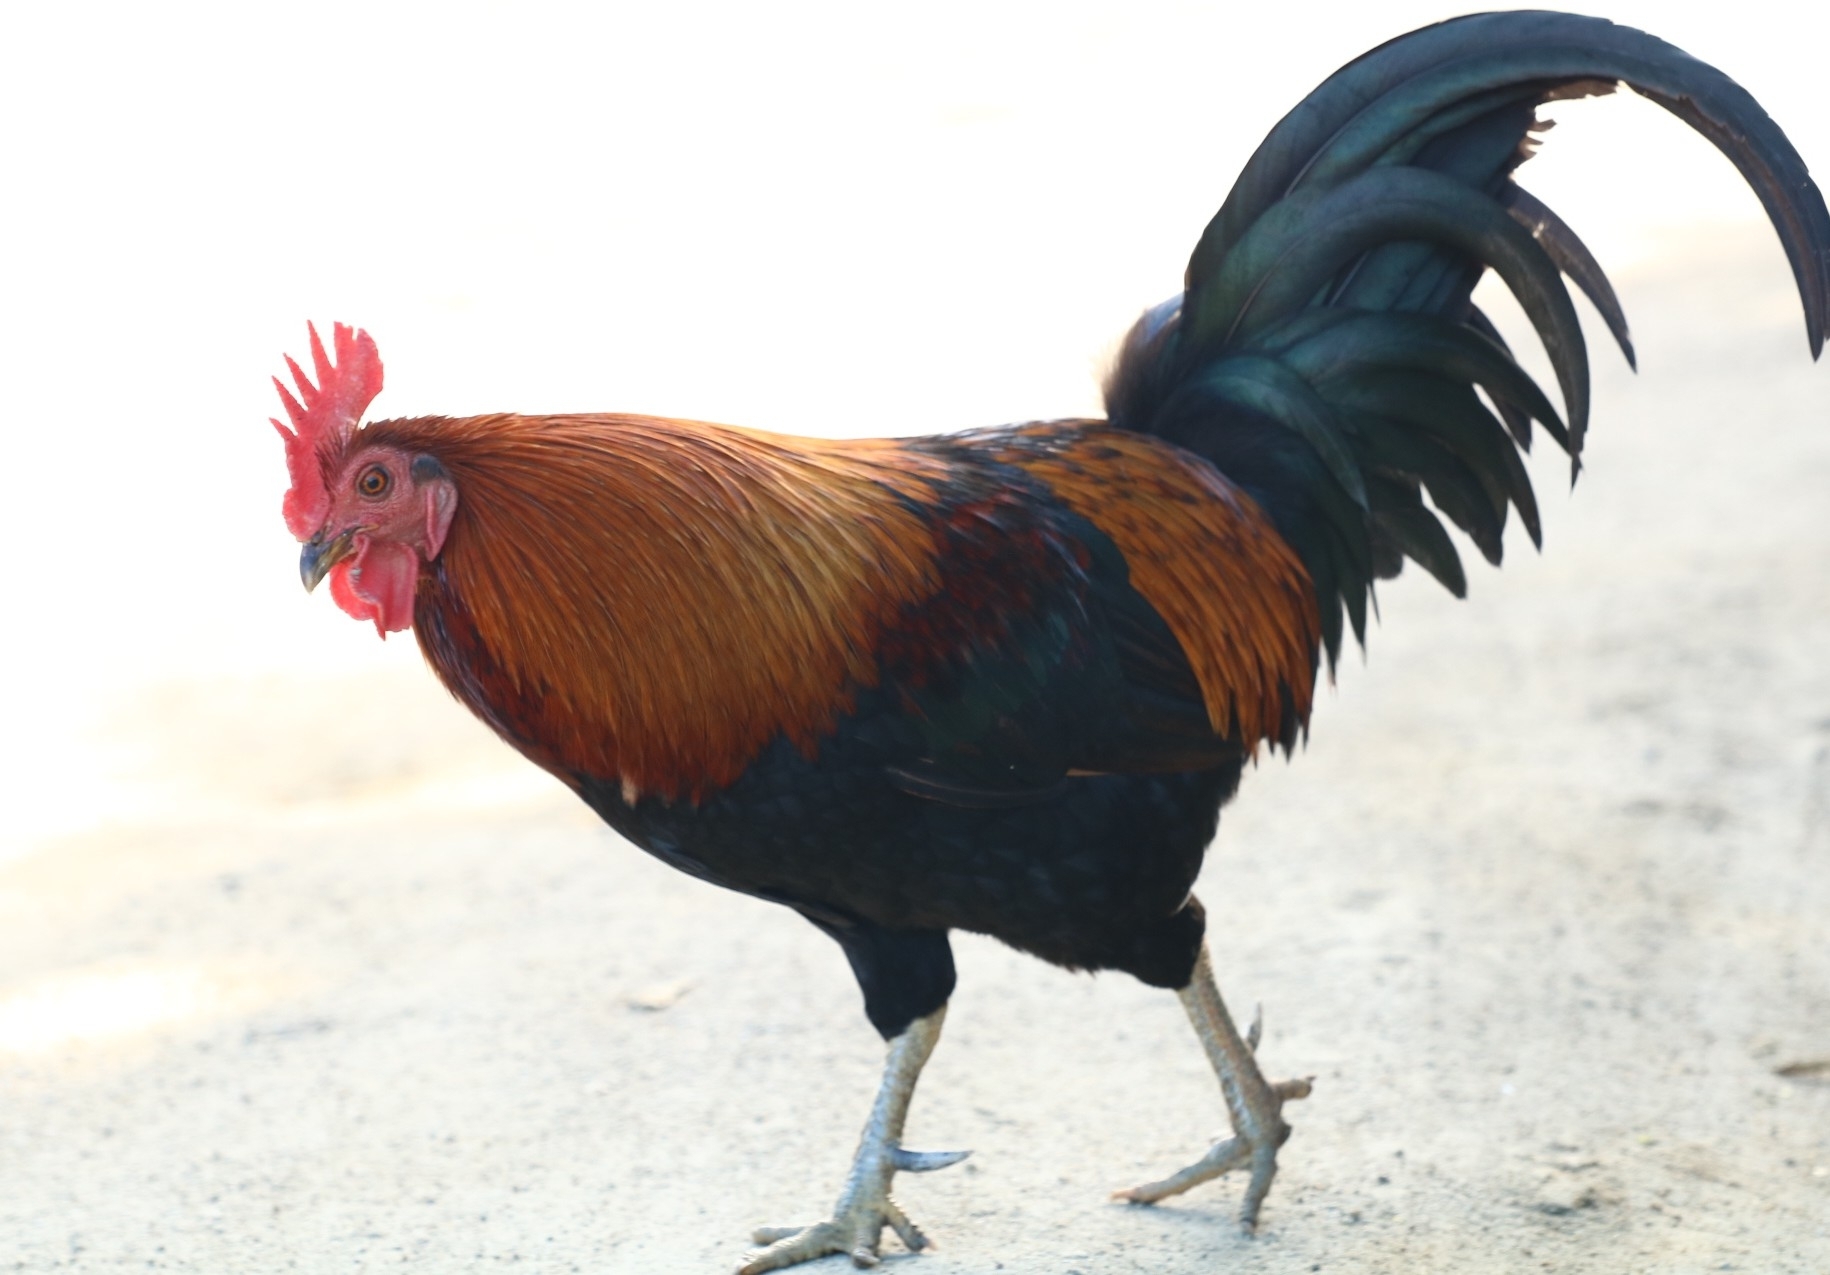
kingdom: Animalia
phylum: Chordata
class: Aves
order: Galliformes
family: Phasianidae
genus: Gallus
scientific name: Gallus gallus
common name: Red junglefowl
